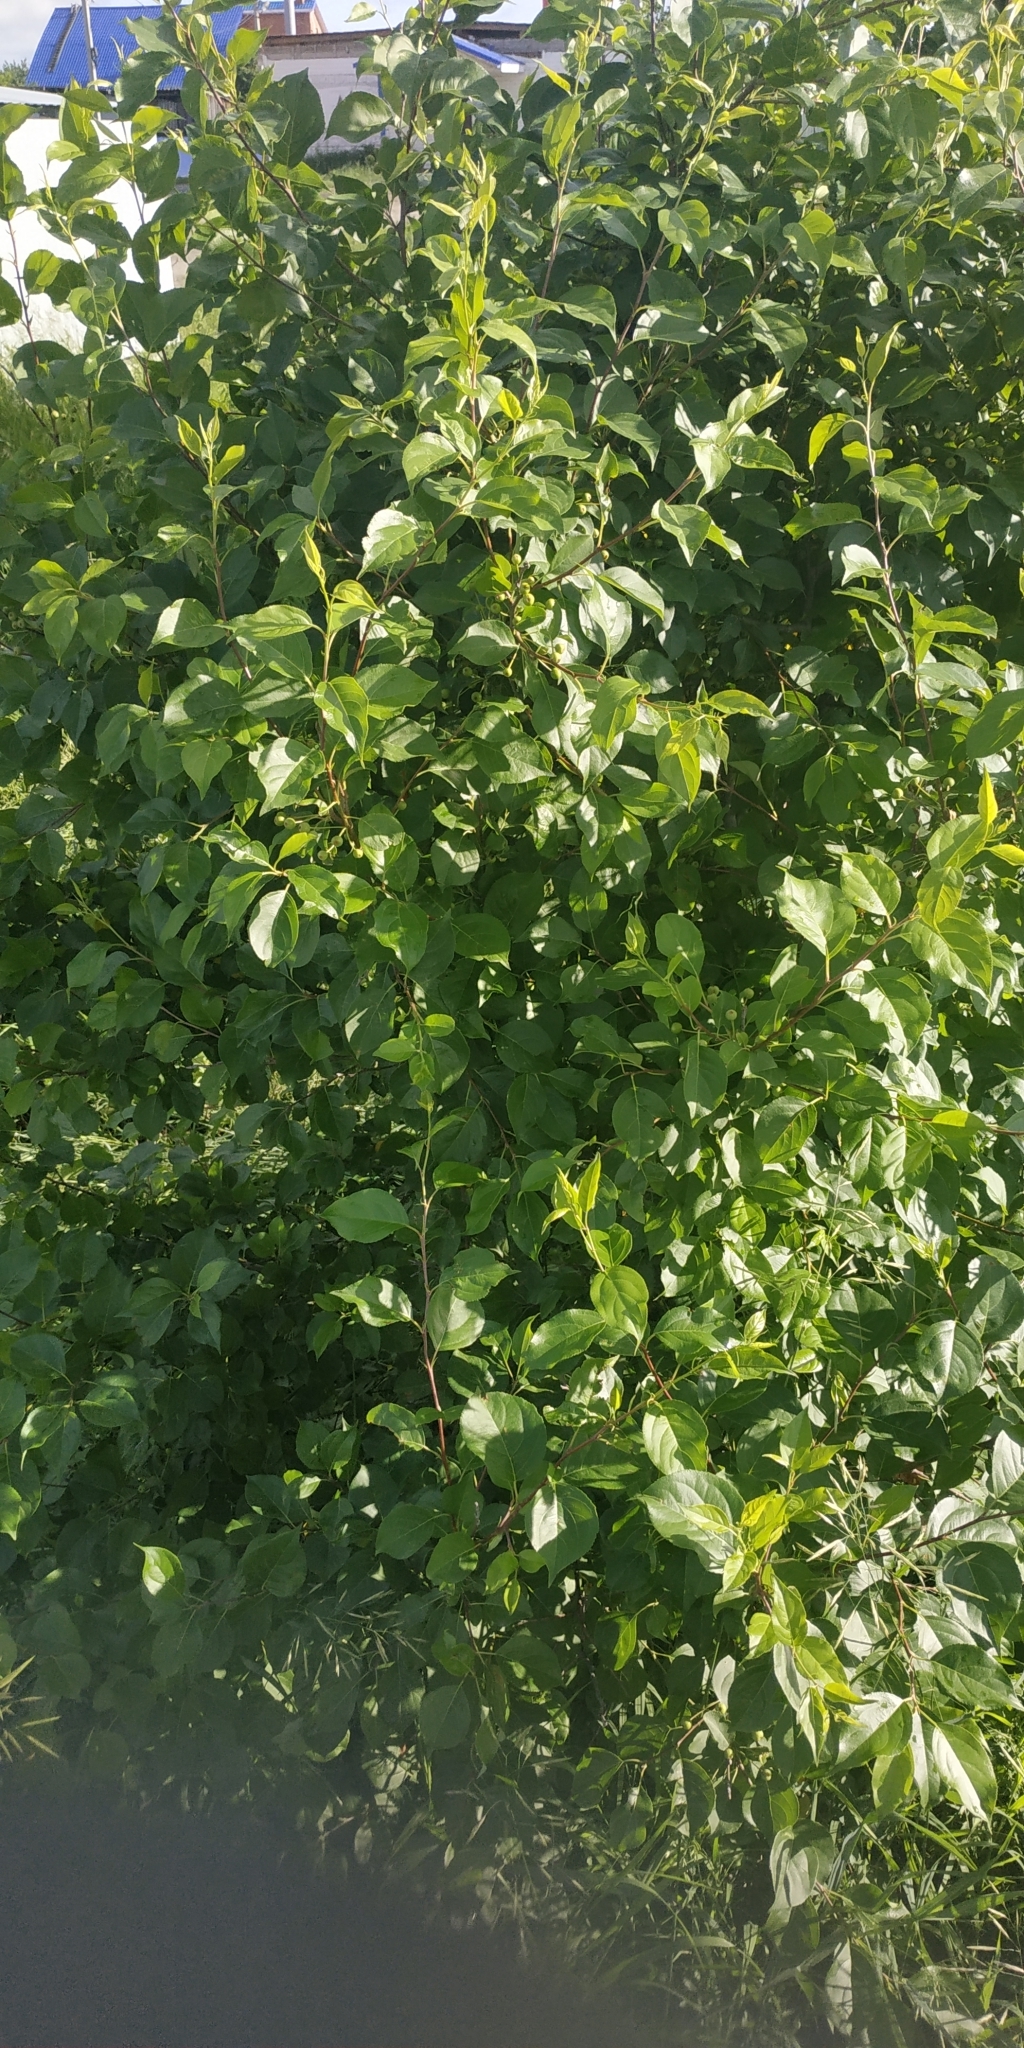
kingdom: Plantae
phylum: Tracheophyta
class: Magnoliopsida
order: Rosales
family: Rosaceae
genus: Malus
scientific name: Malus baccata
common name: Siberian crab
